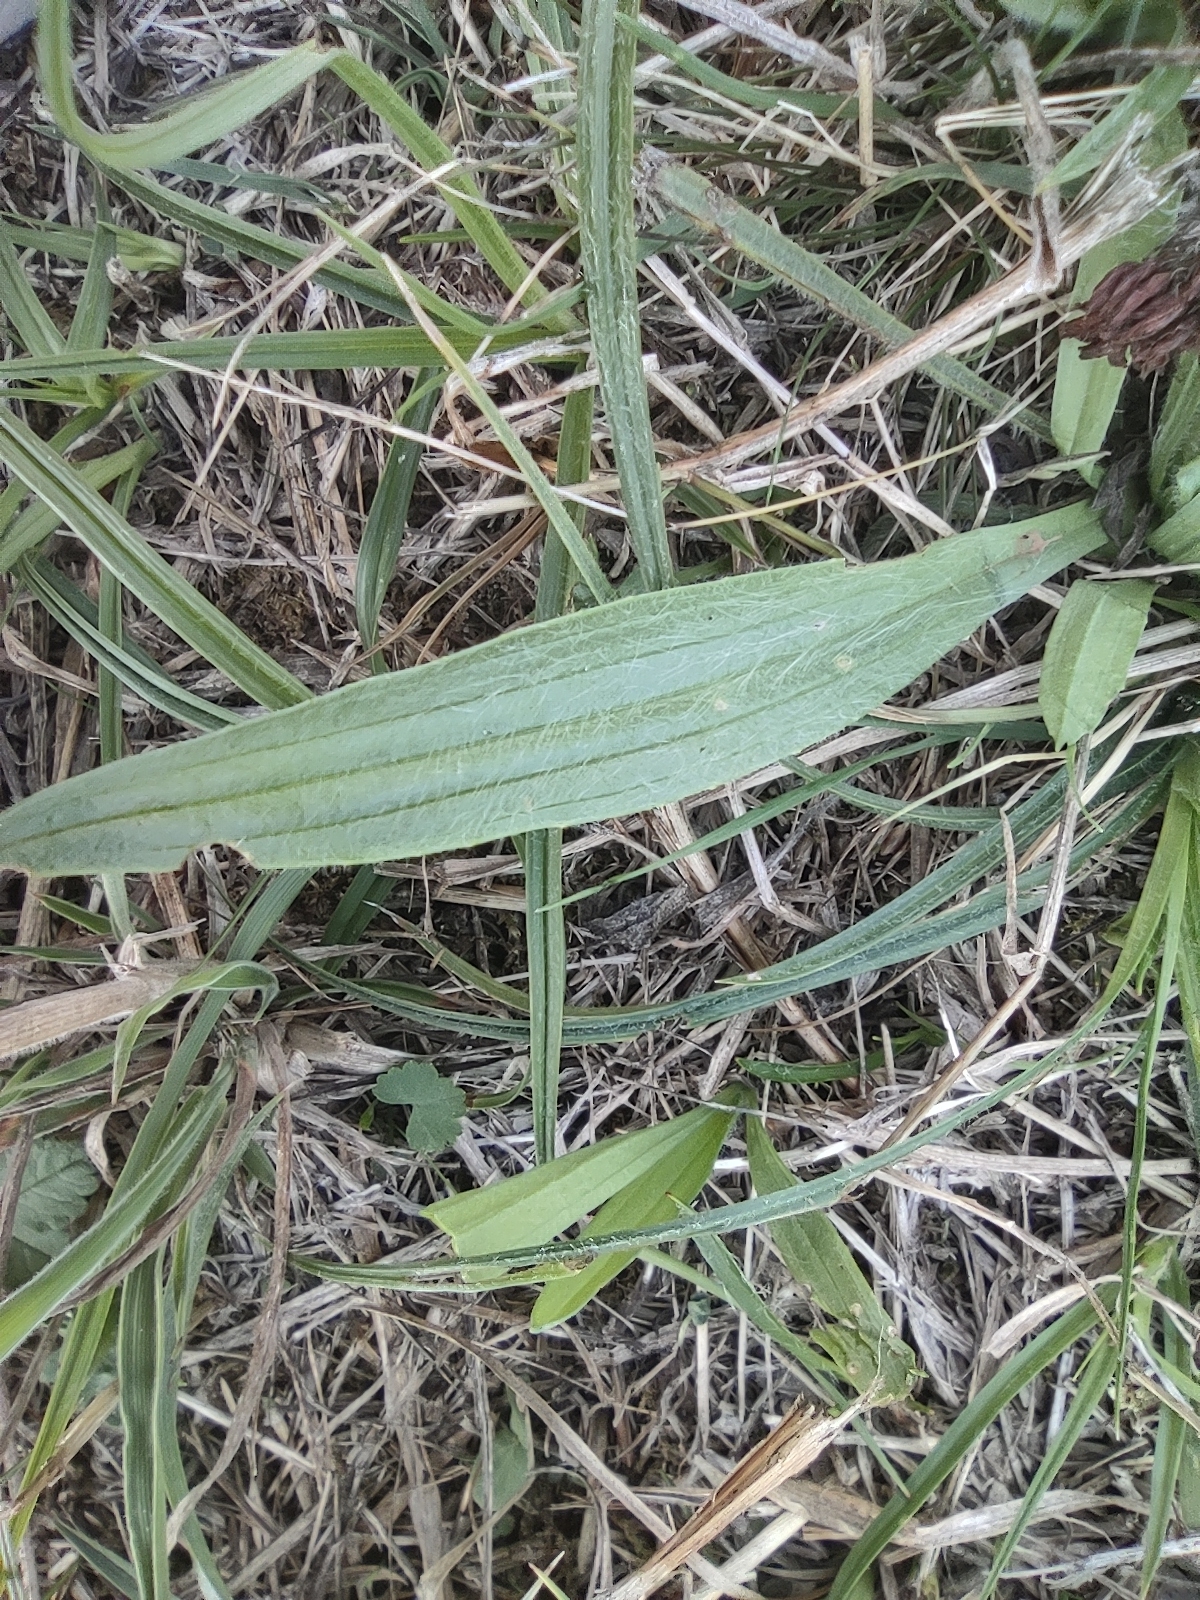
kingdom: Plantae
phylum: Tracheophyta
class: Magnoliopsida
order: Lamiales
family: Plantaginaceae
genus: Plantago
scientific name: Plantago lanceolata
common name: Ribwort plantain
